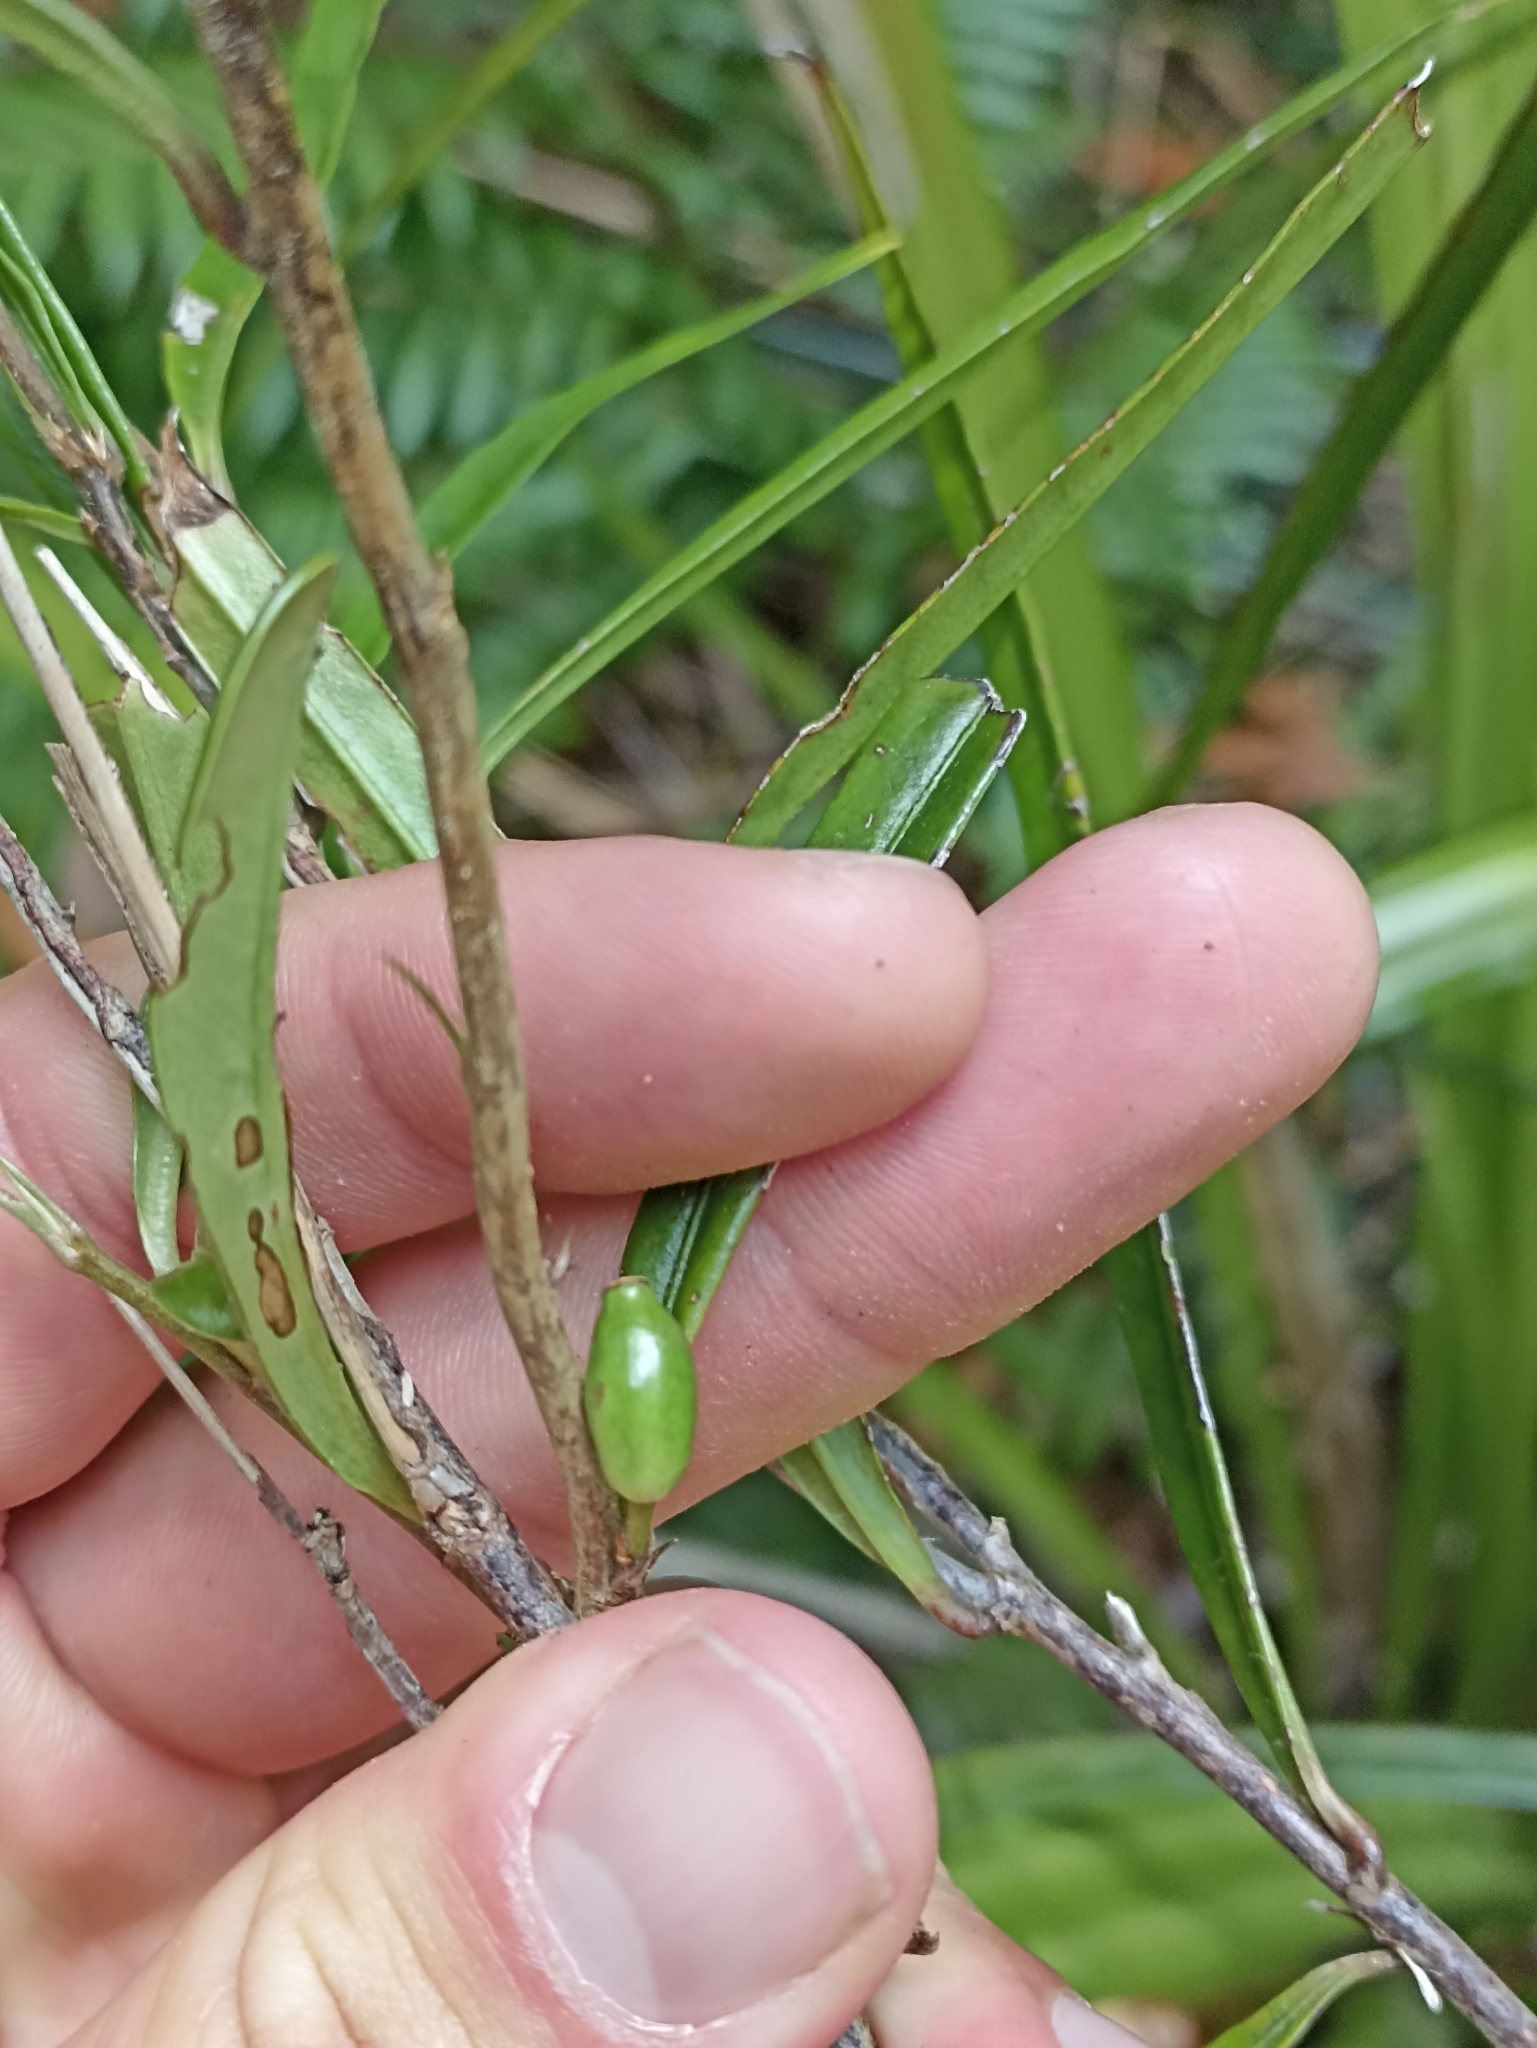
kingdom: Plantae
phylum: Tracheophyta
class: Magnoliopsida
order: Santalales
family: Nanodeaceae
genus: Mida
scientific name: Mida salicifolia
